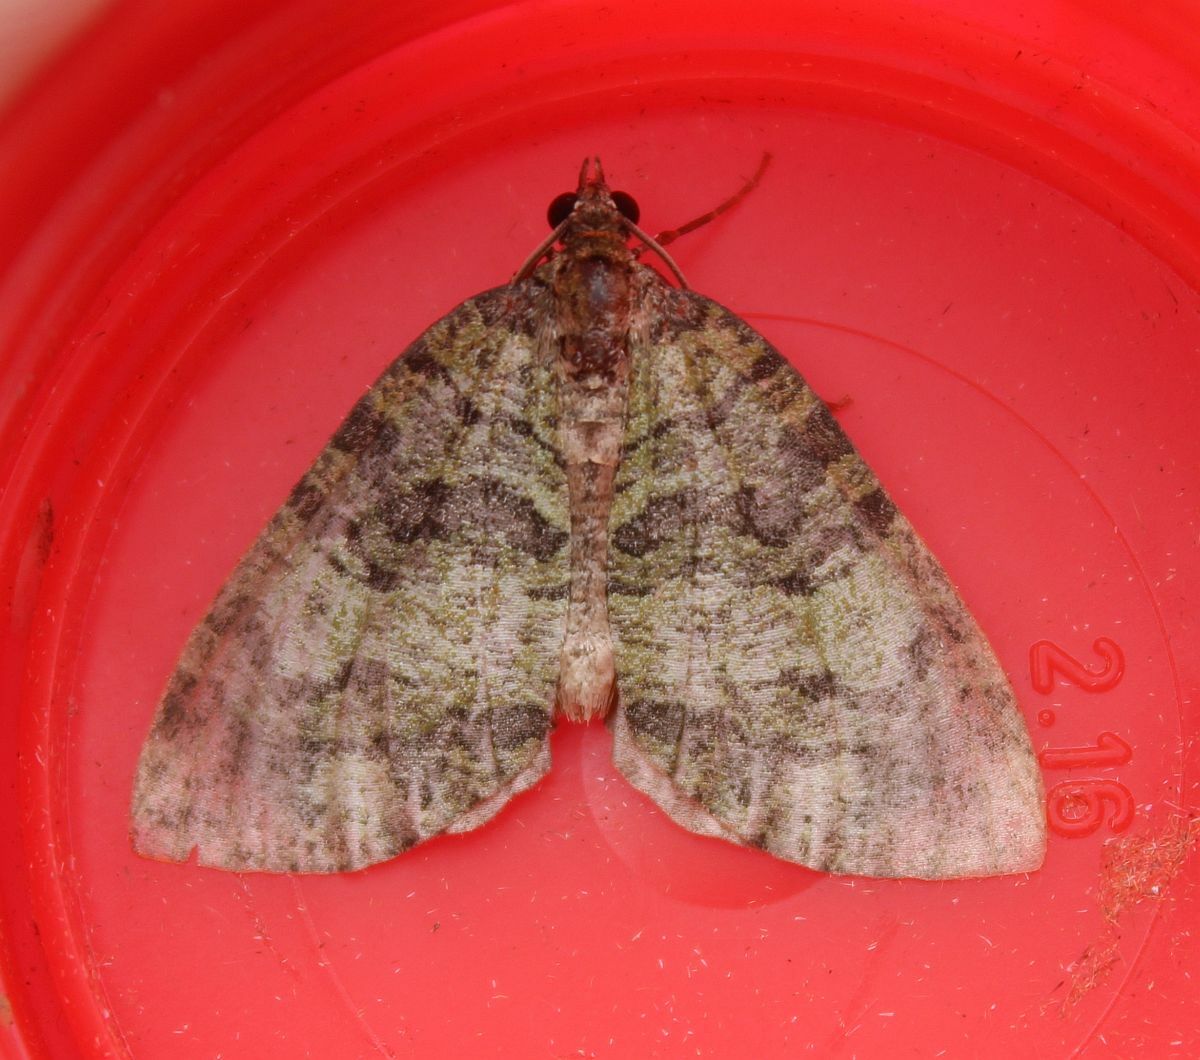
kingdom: Animalia
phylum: Arthropoda
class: Insecta
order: Lepidoptera
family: Geometridae
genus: Hydriomena
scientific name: Hydriomena furcata
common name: July highflyer
